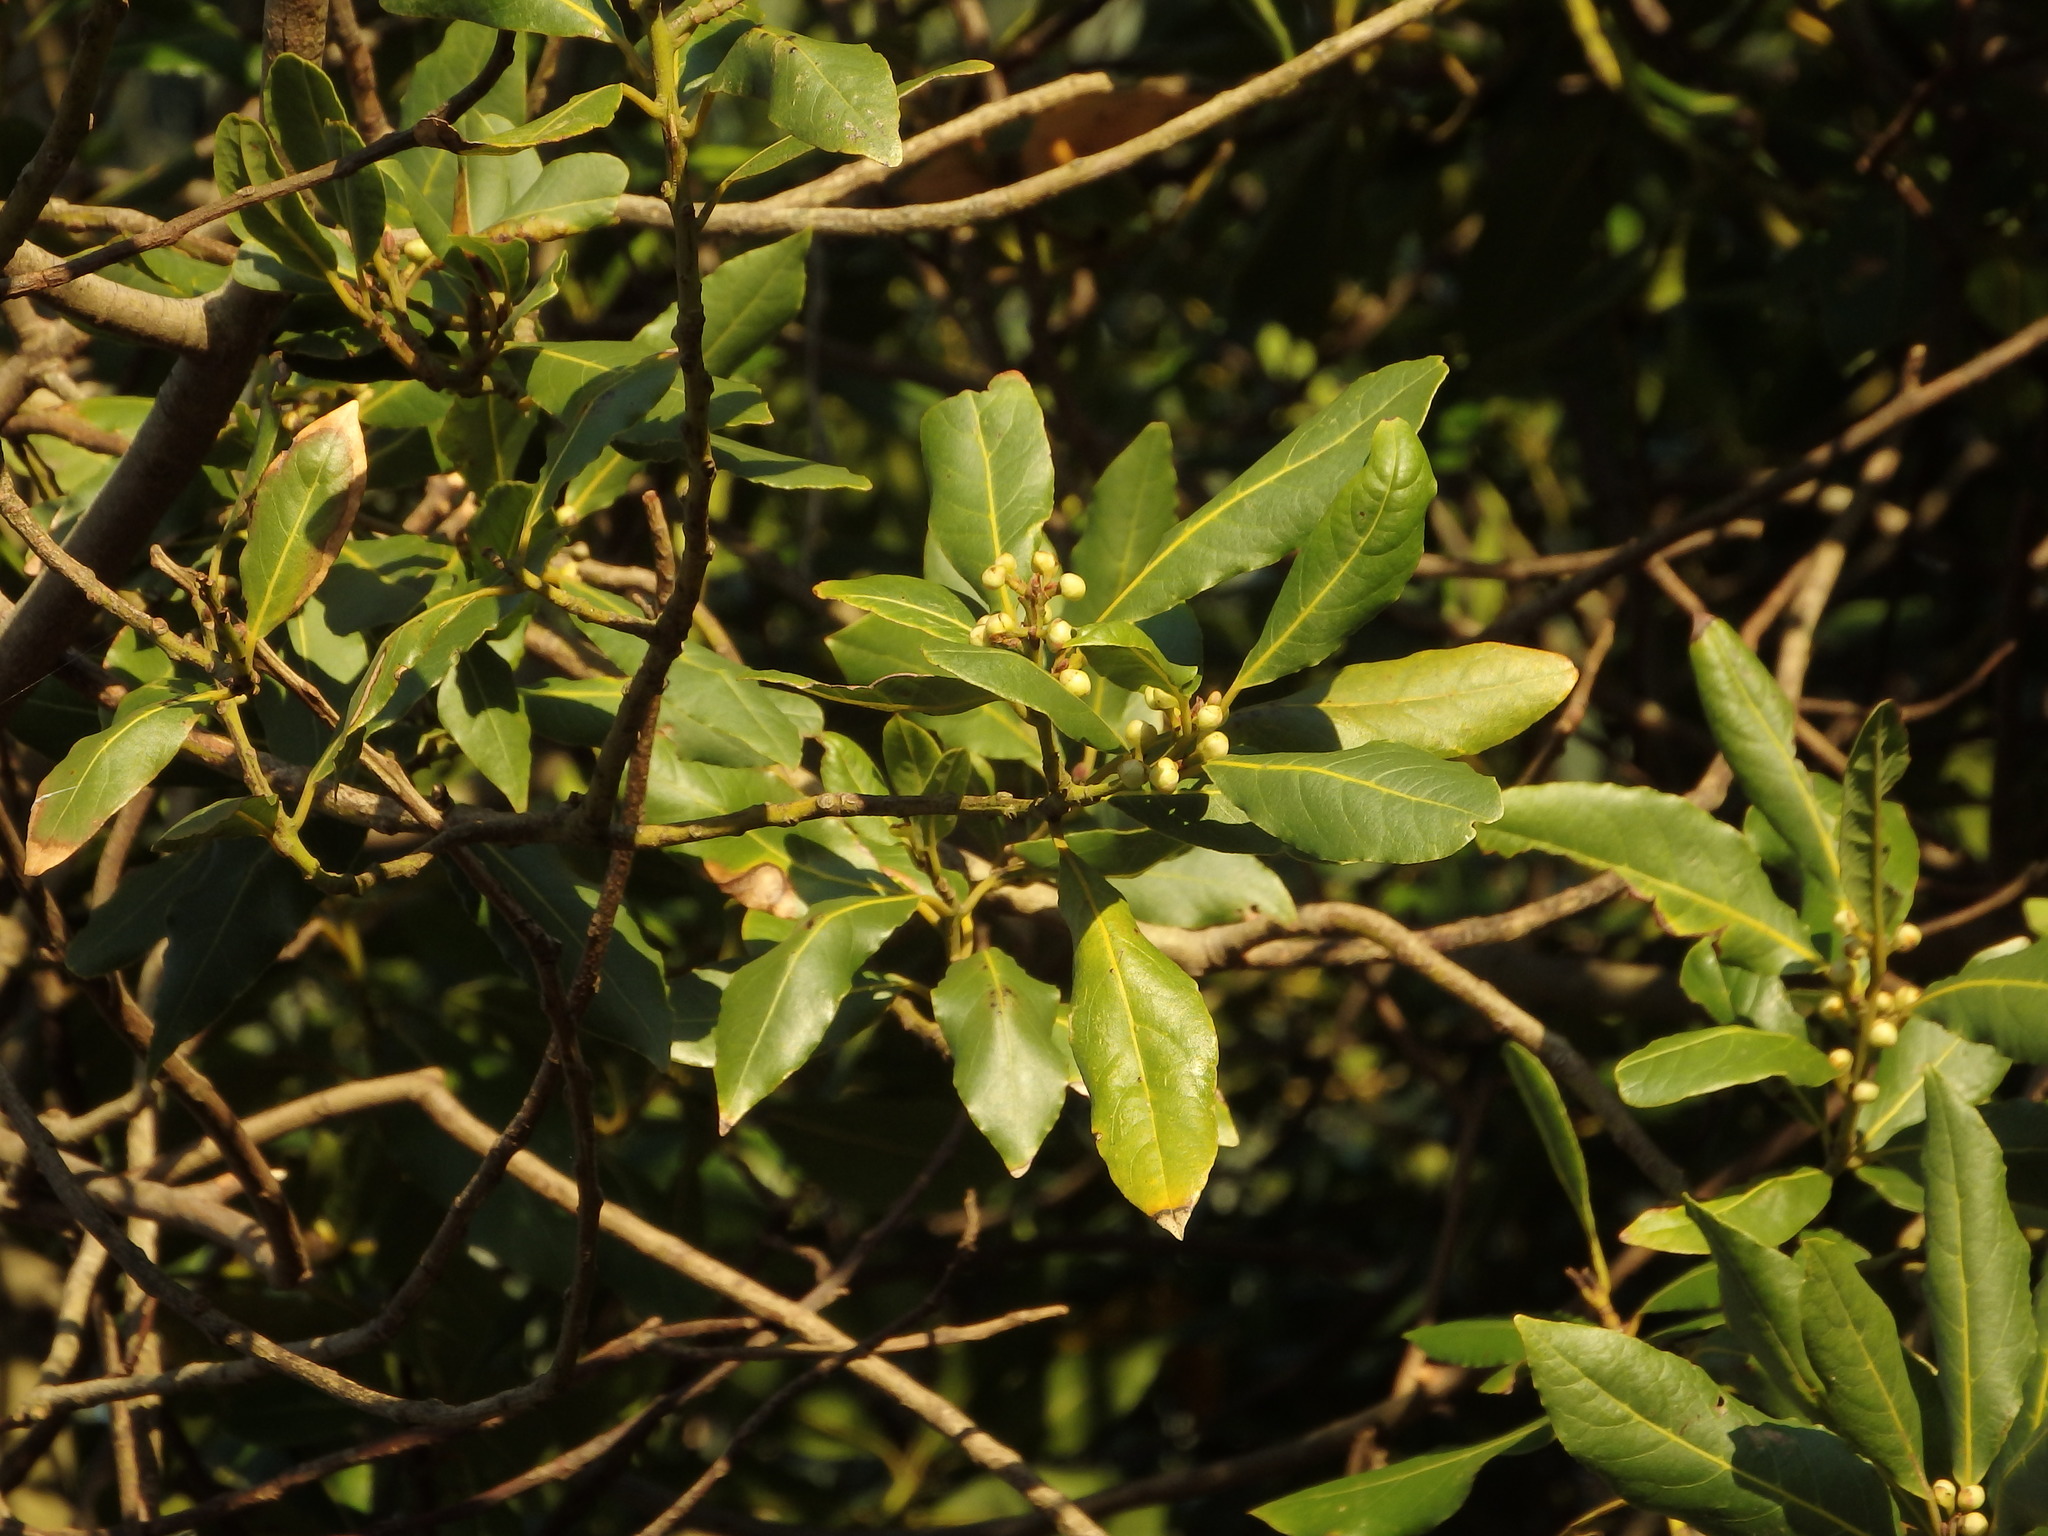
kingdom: Plantae
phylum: Tracheophyta
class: Magnoliopsida
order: Laurales
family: Lauraceae
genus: Laurus
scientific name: Laurus nobilis
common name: Bay
